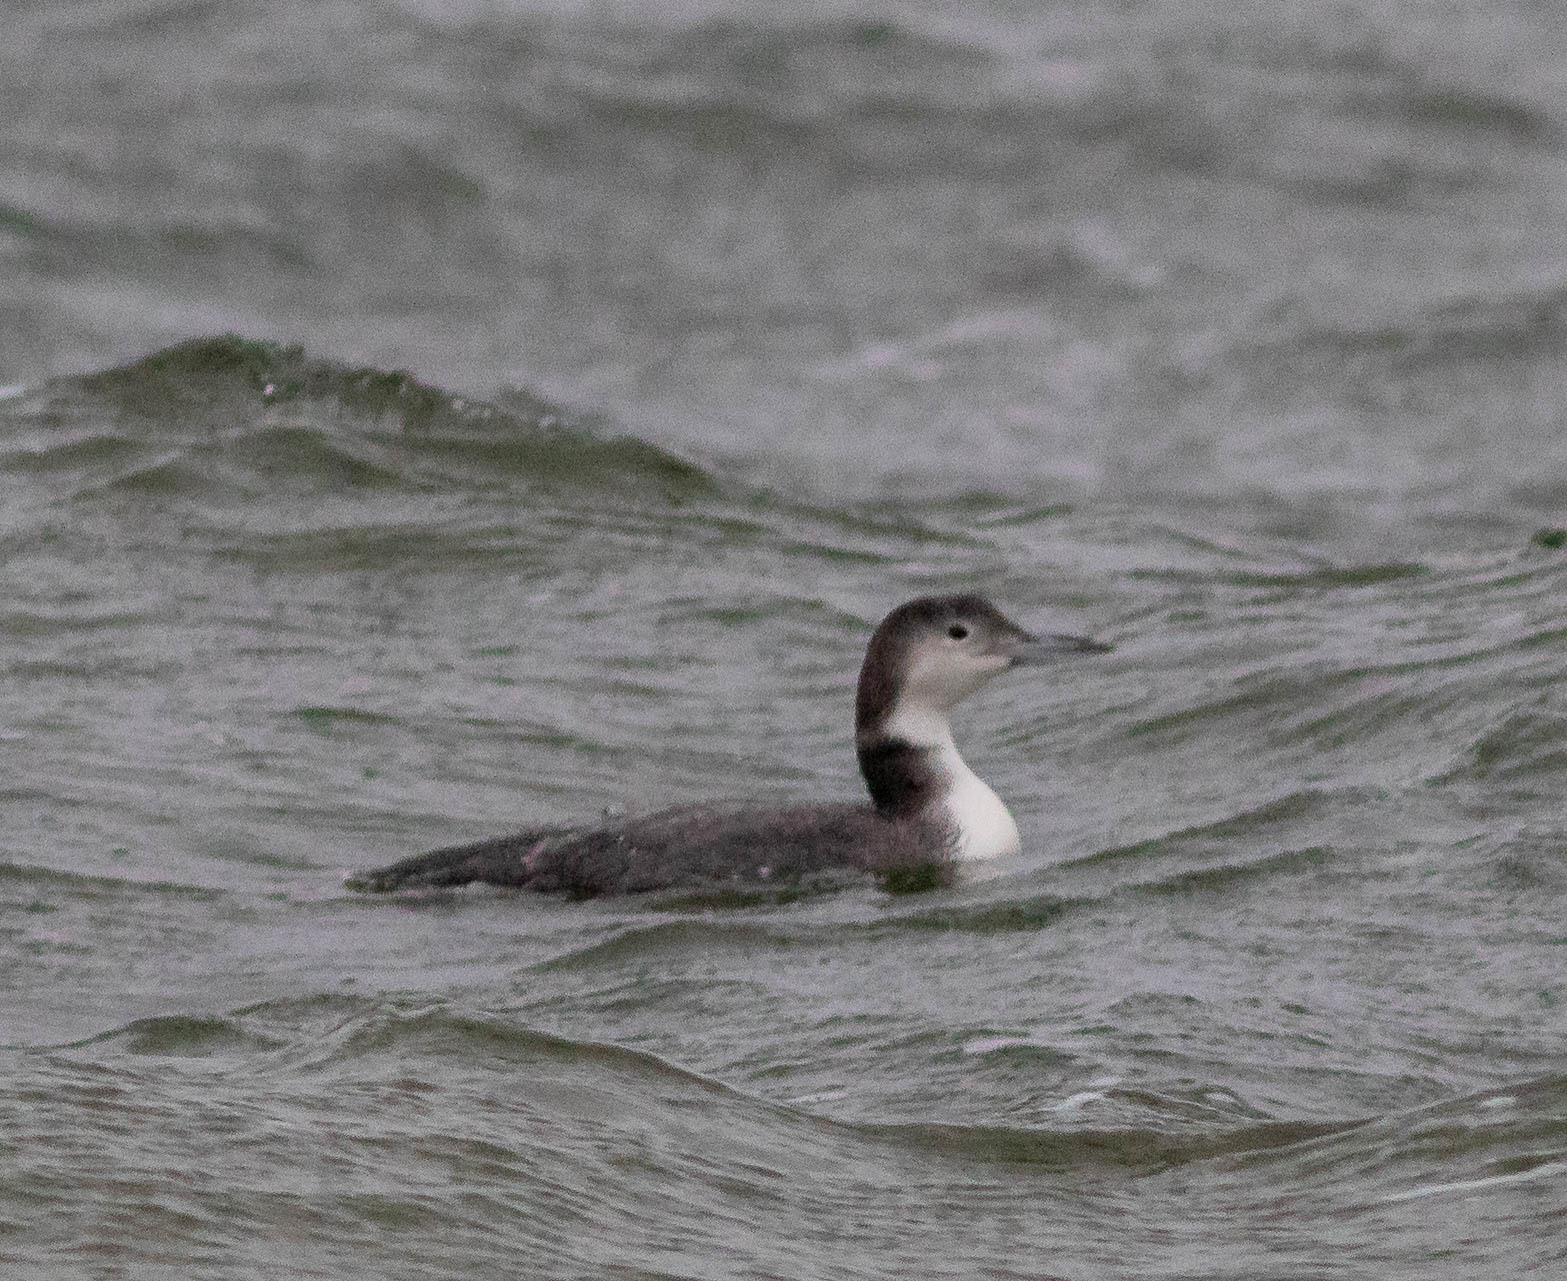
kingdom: Animalia
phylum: Chordata
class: Aves
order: Gaviiformes
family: Gaviidae
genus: Gavia
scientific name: Gavia immer
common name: Common loon
